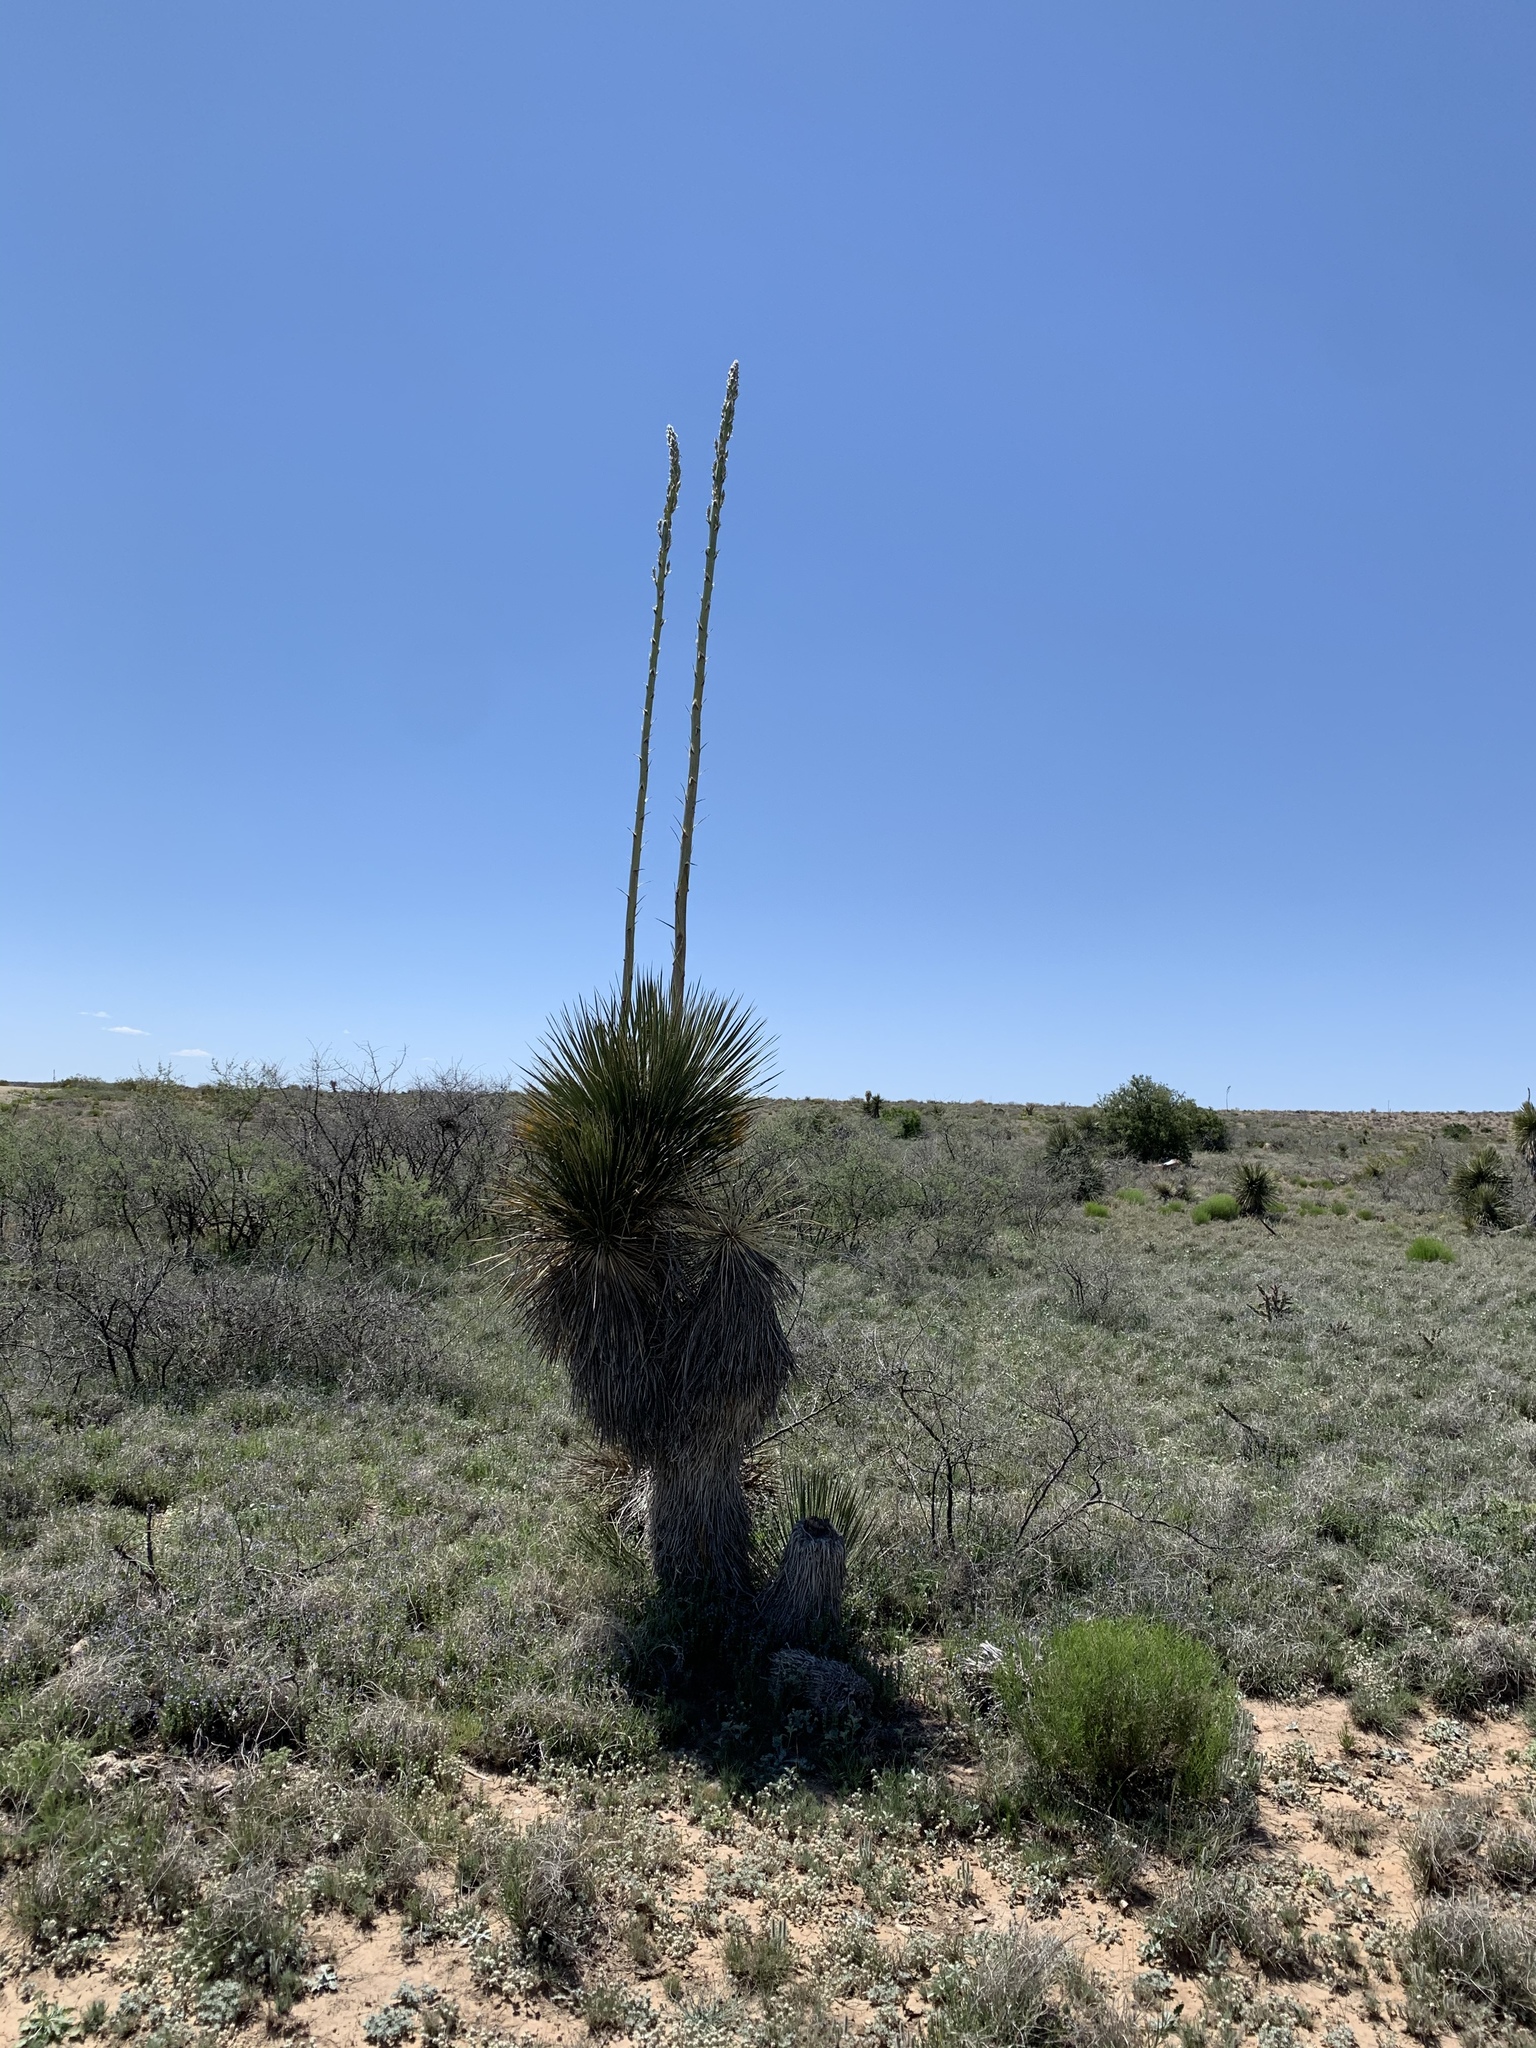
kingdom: Plantae
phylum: Tracheophyta
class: Liliopsida
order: Asparagales
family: Asparagaceae
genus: Yucca
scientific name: Yucca elata
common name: Palmella
